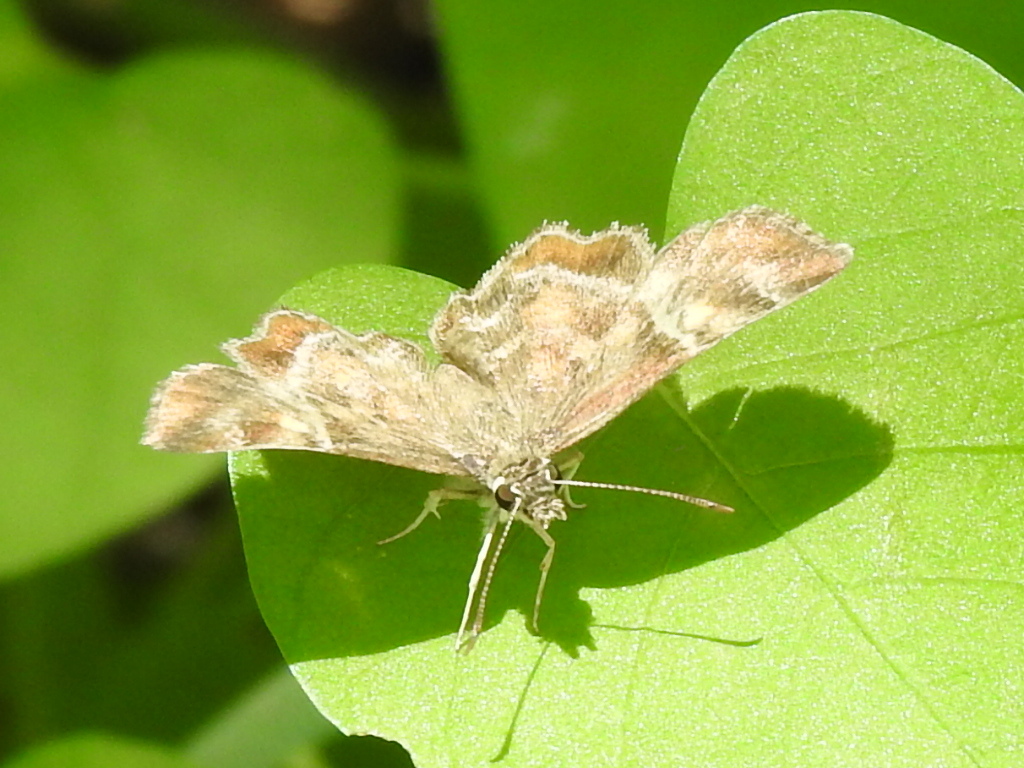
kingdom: Animalia
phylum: Arthropoda
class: Insecta
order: Lepidoptera
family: Hesperiidae
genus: Systasea
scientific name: Systasea pulverulenta
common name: Texas powdered skipper
